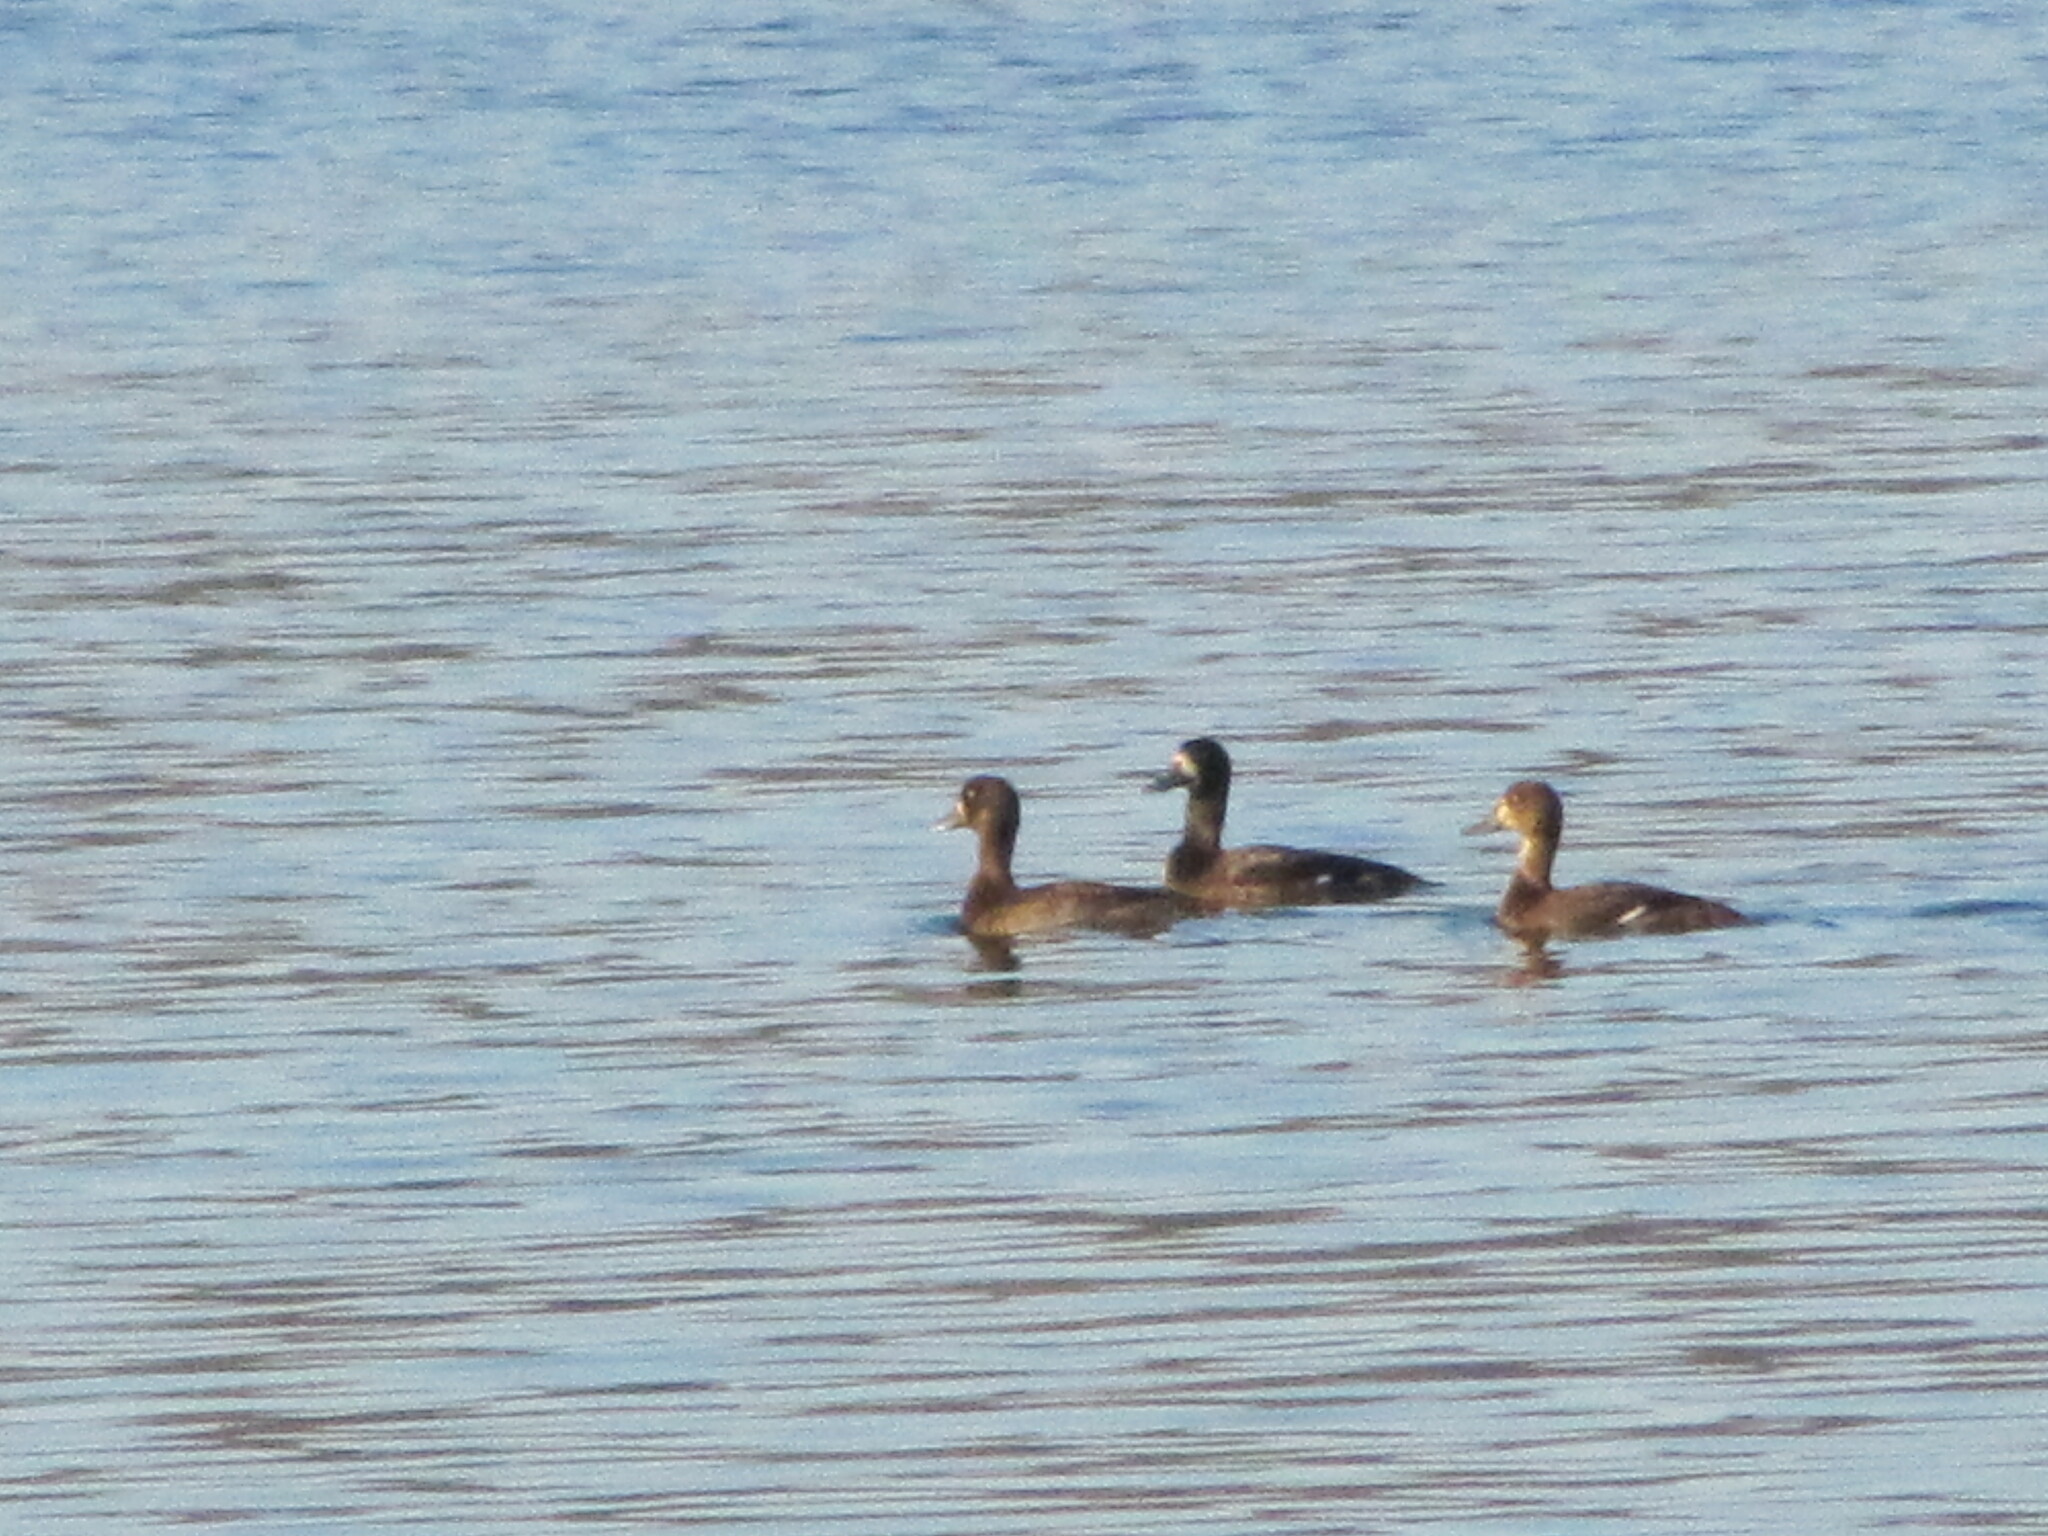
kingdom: Animalia
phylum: Chordata
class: Aves
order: Anseriformes
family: Anatidae
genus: Aythya
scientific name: Aythya marila
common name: Greater scaup
